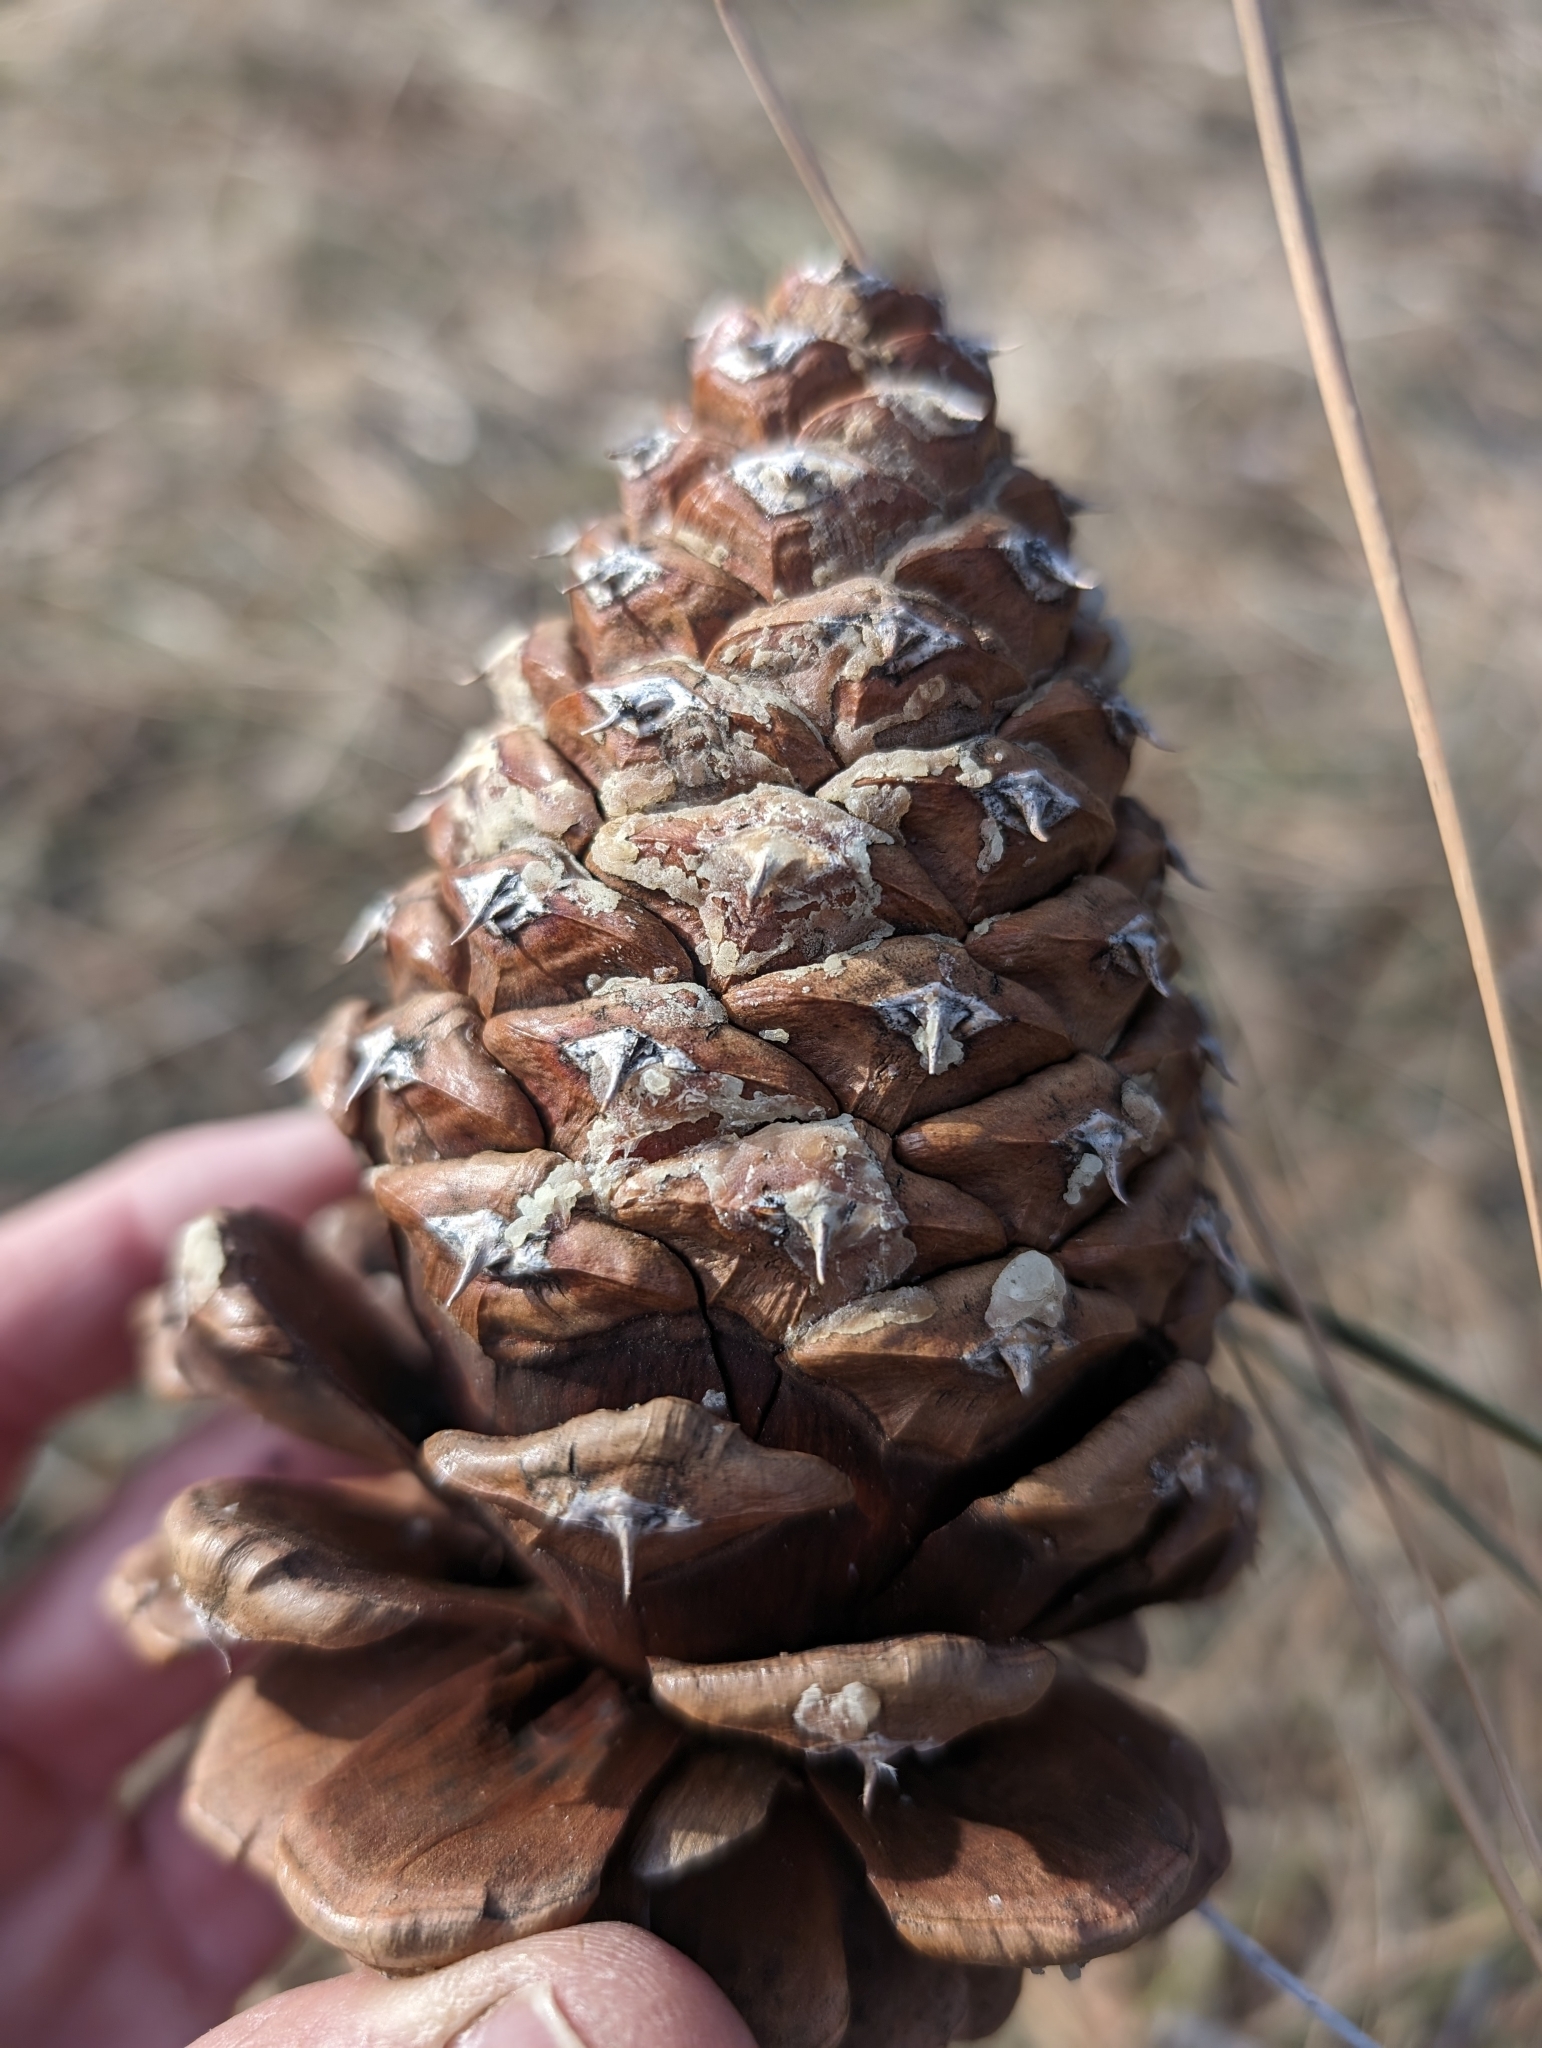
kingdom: Plantae
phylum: Tracheophyta
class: Pinopsida
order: Pinales
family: Pinaceae
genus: Pinus
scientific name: Pinus jeffreyi
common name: Jeffrey pine
